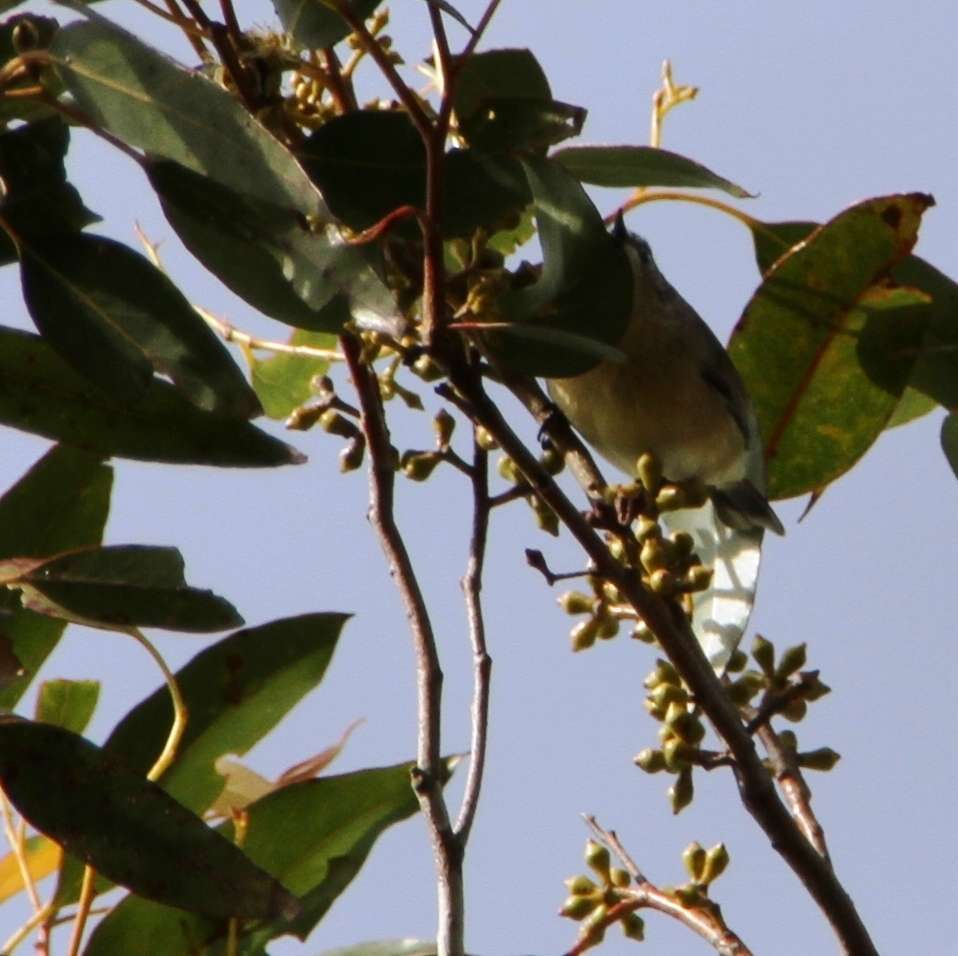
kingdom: Animalia
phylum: Chordata
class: Aves
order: Passeriformes
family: Sturnidae
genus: Sturnus
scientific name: Sturnus vulgaris
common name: Common starling
